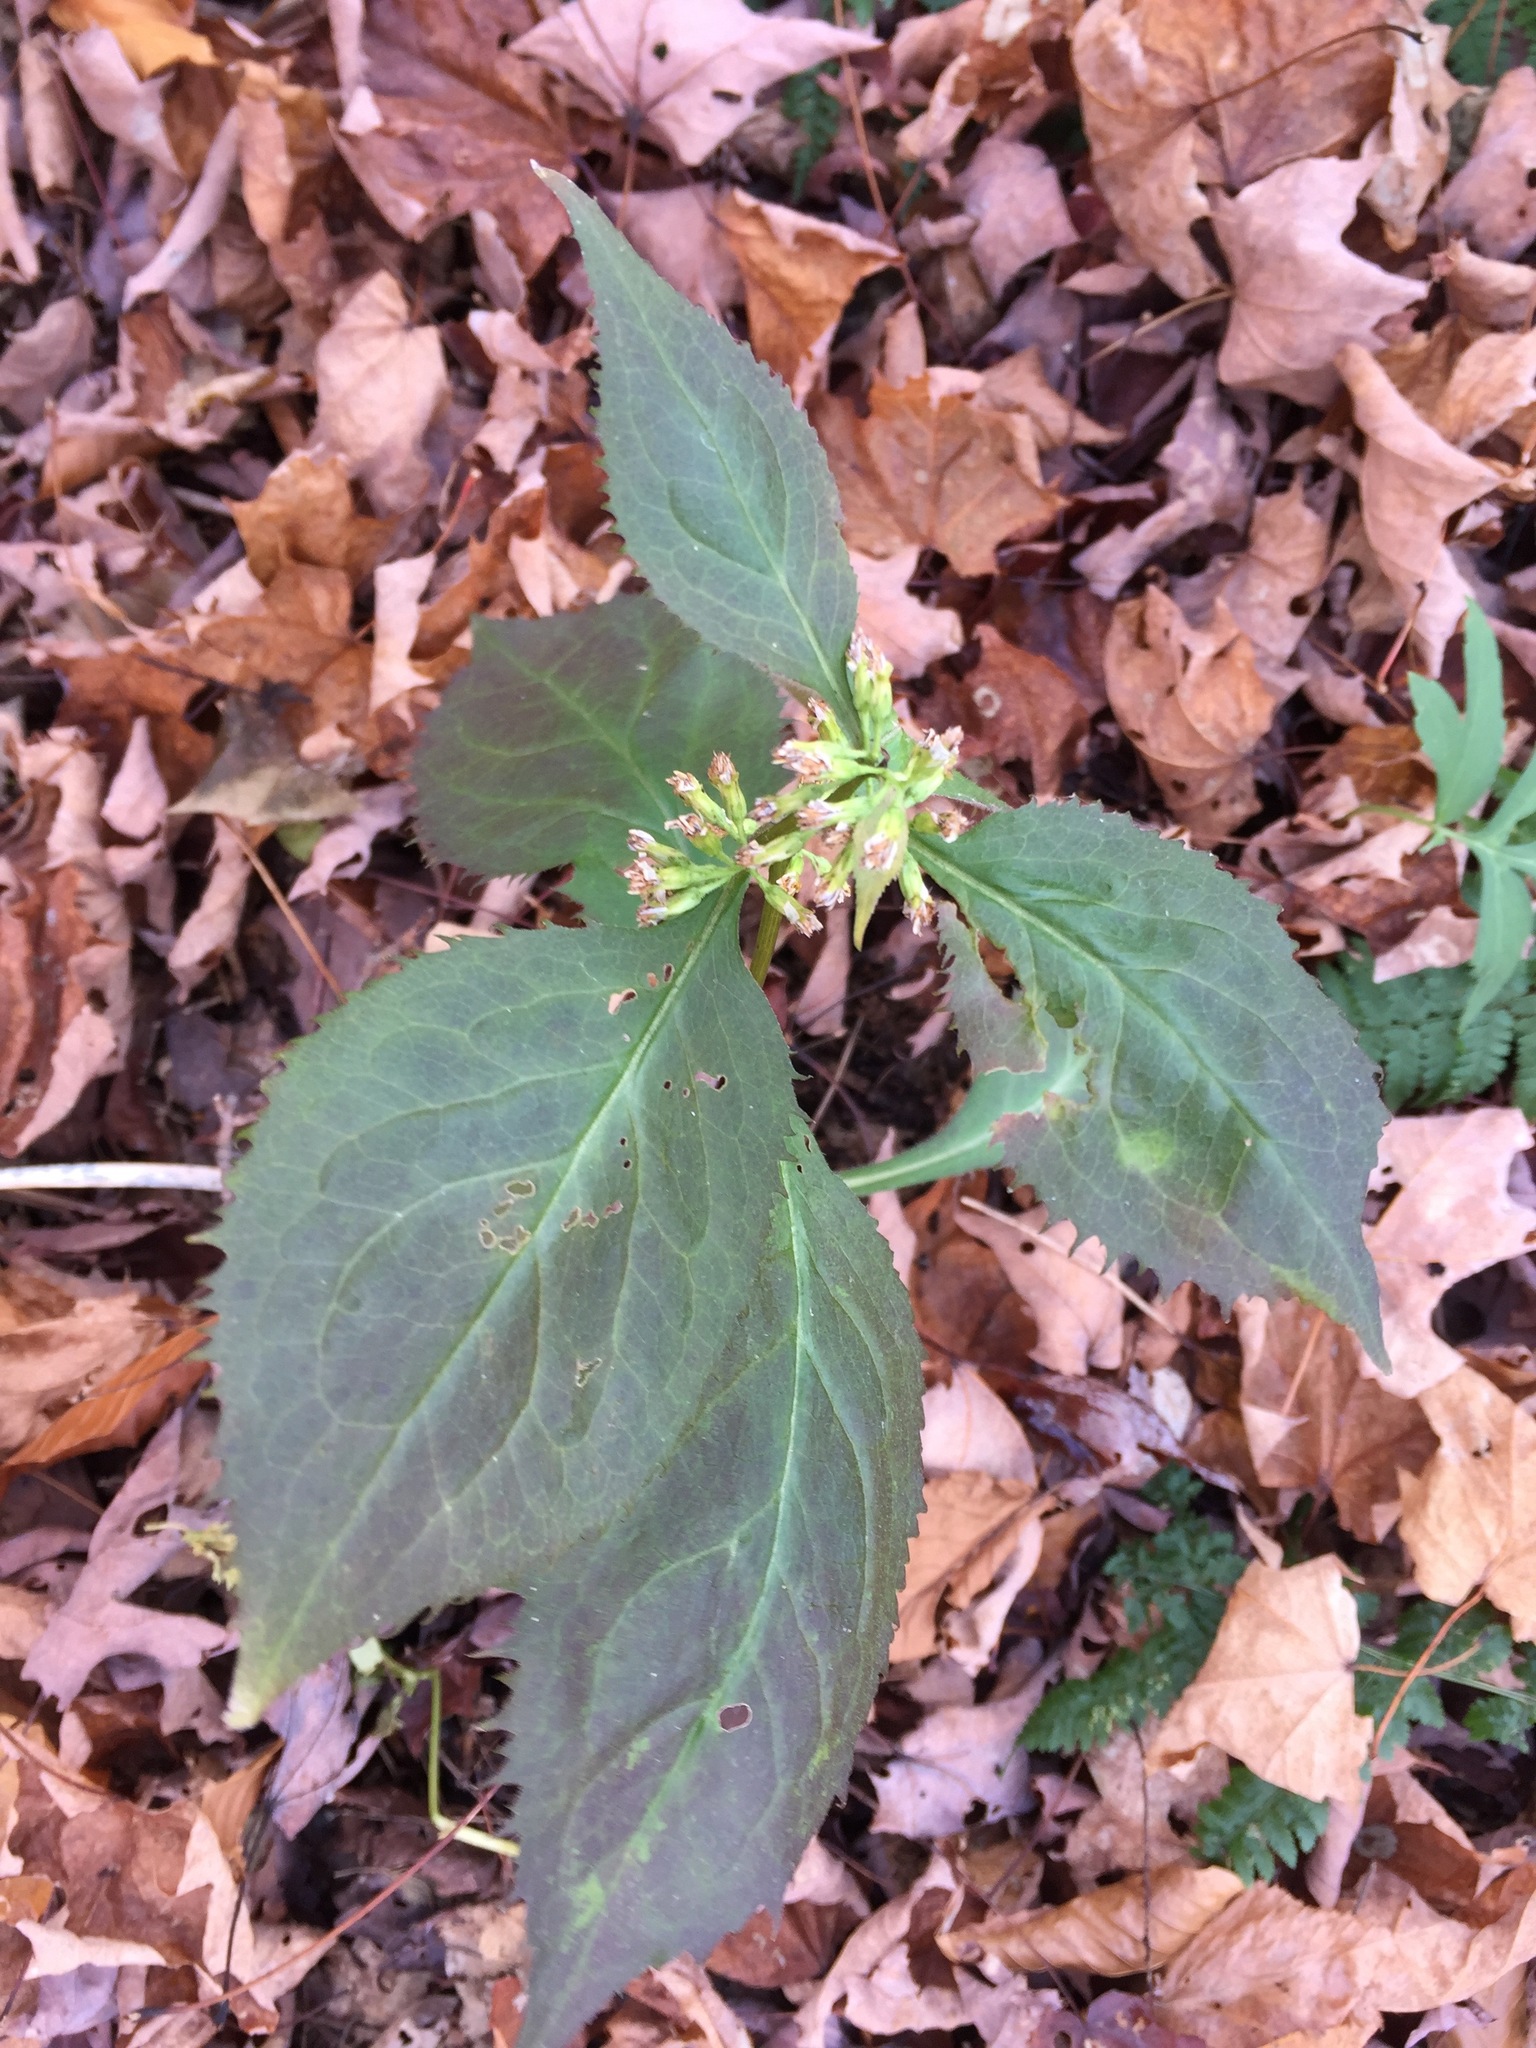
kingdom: Plantae
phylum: Tracheophyta
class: Magnoliopsida
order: Asterales
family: Asteraceae
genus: Solidago
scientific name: Solidago flexicaulis
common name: Zig-zag goldenrod
